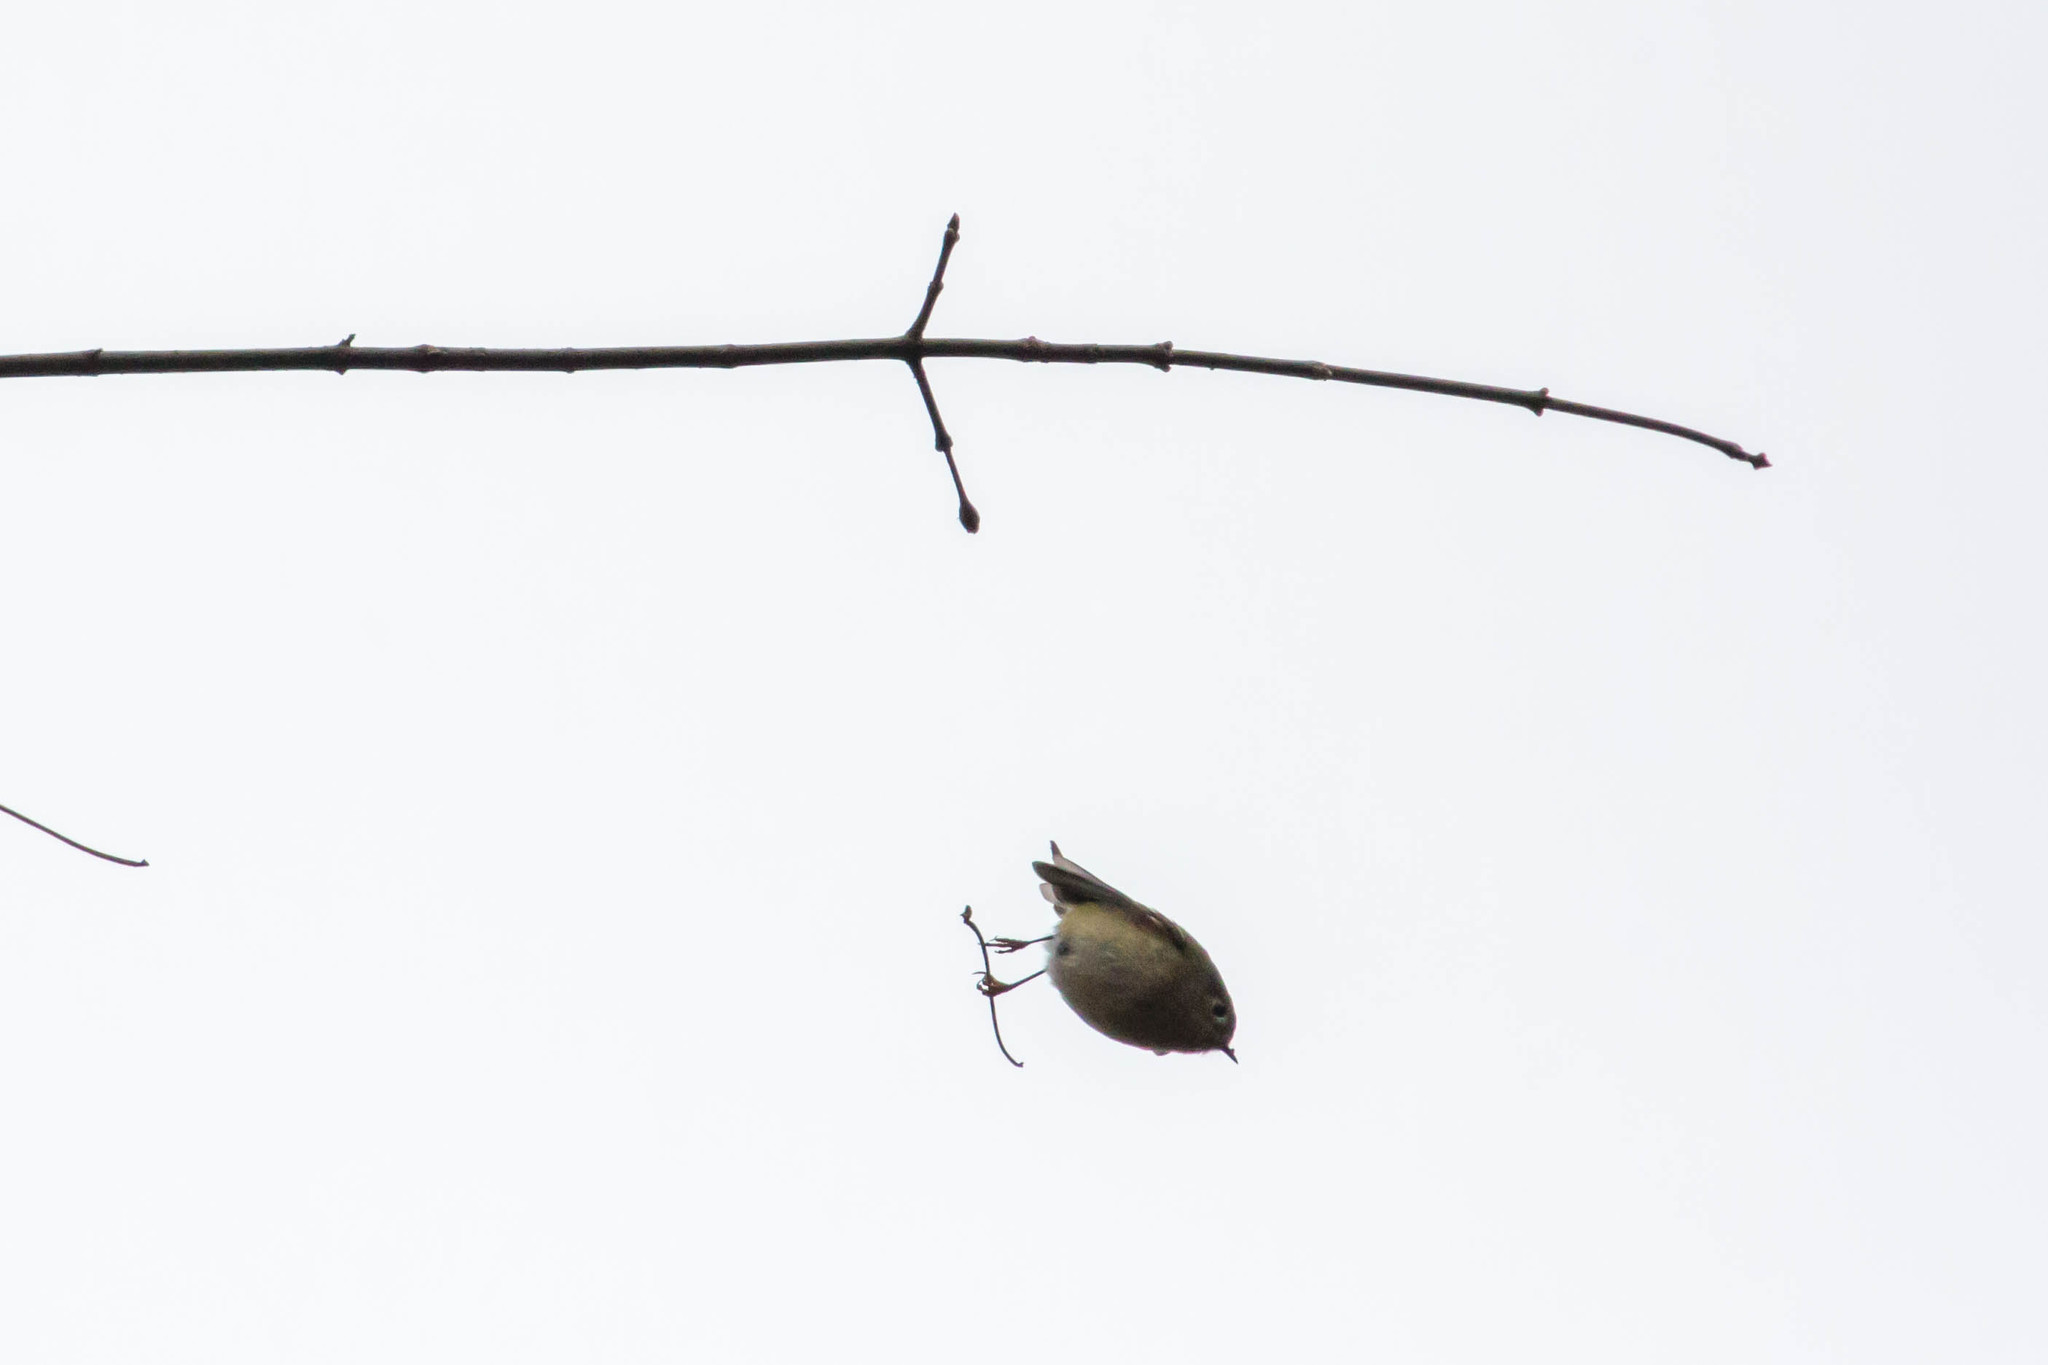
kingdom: Animalia
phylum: Chordata
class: Aves
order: Passeriformes
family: Regulidae
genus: Regulus
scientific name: Regulus calendula
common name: Ruby-crowned kinglet
